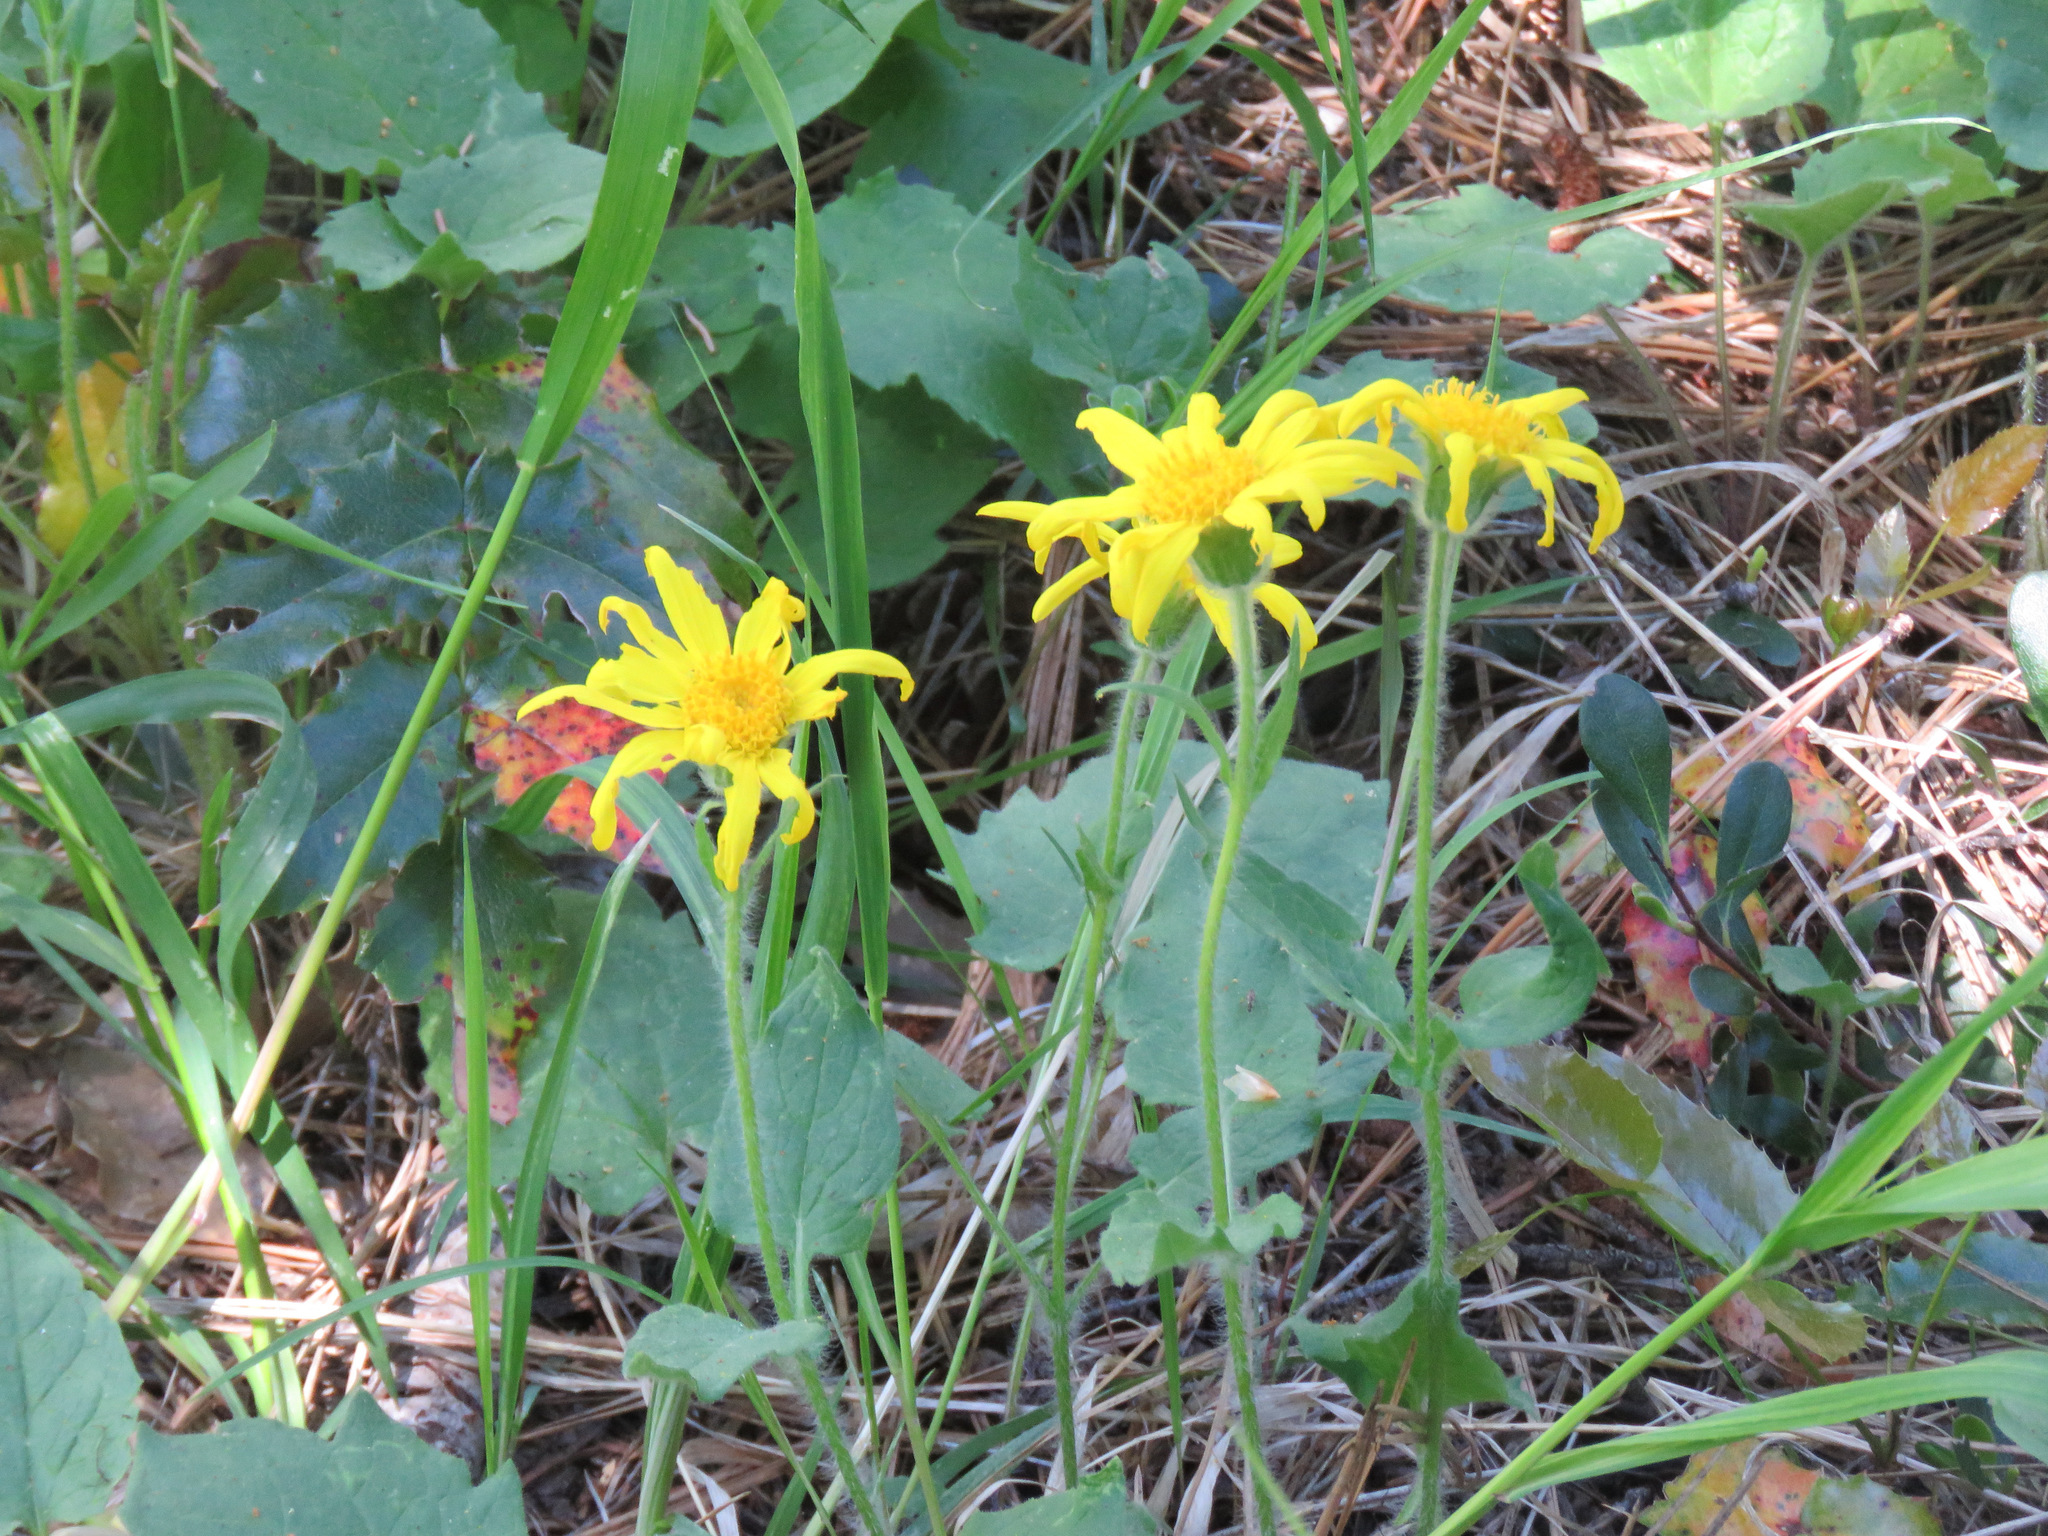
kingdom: Plantae
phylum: Tracheophyta
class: Magnoliopsida
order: Asterales
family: Asteraceae
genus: Arnica
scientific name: Arnica cordifolia
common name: Heart-leaf arnica
